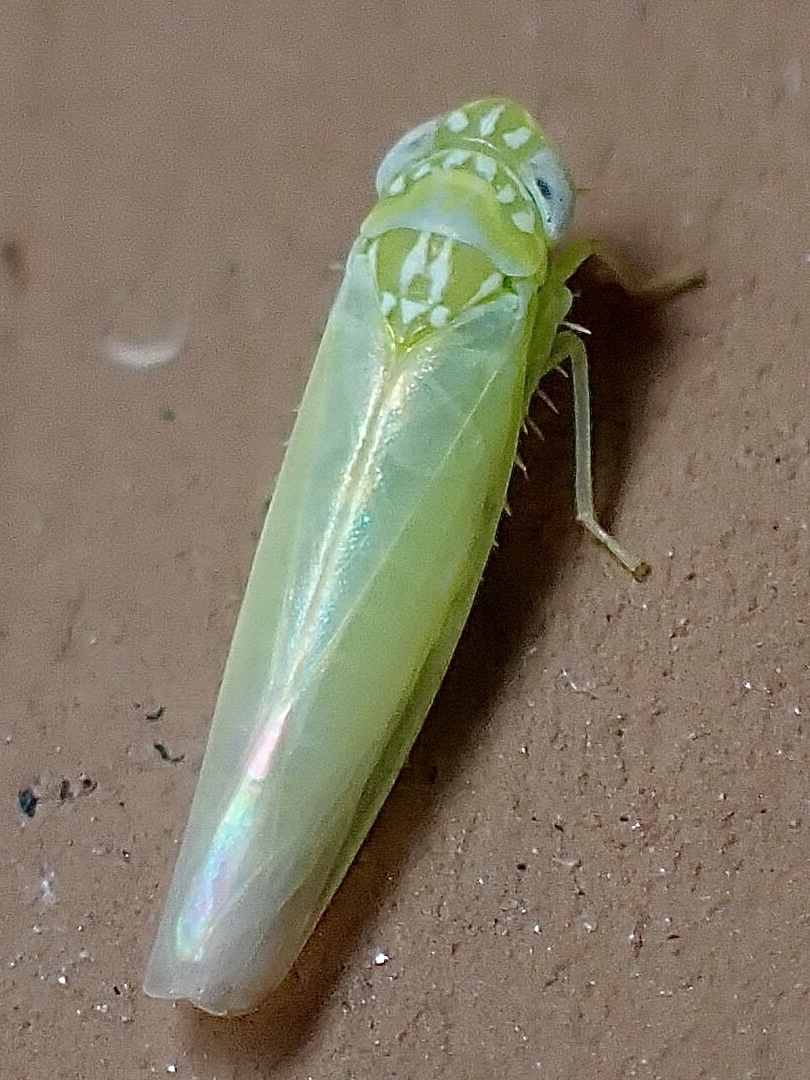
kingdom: Animalia
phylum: Arthropoda
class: Insecta
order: Hemiptera
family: Cicadellidae
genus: Empoasca
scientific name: Empoasca fabae
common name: Potato leafhopper
